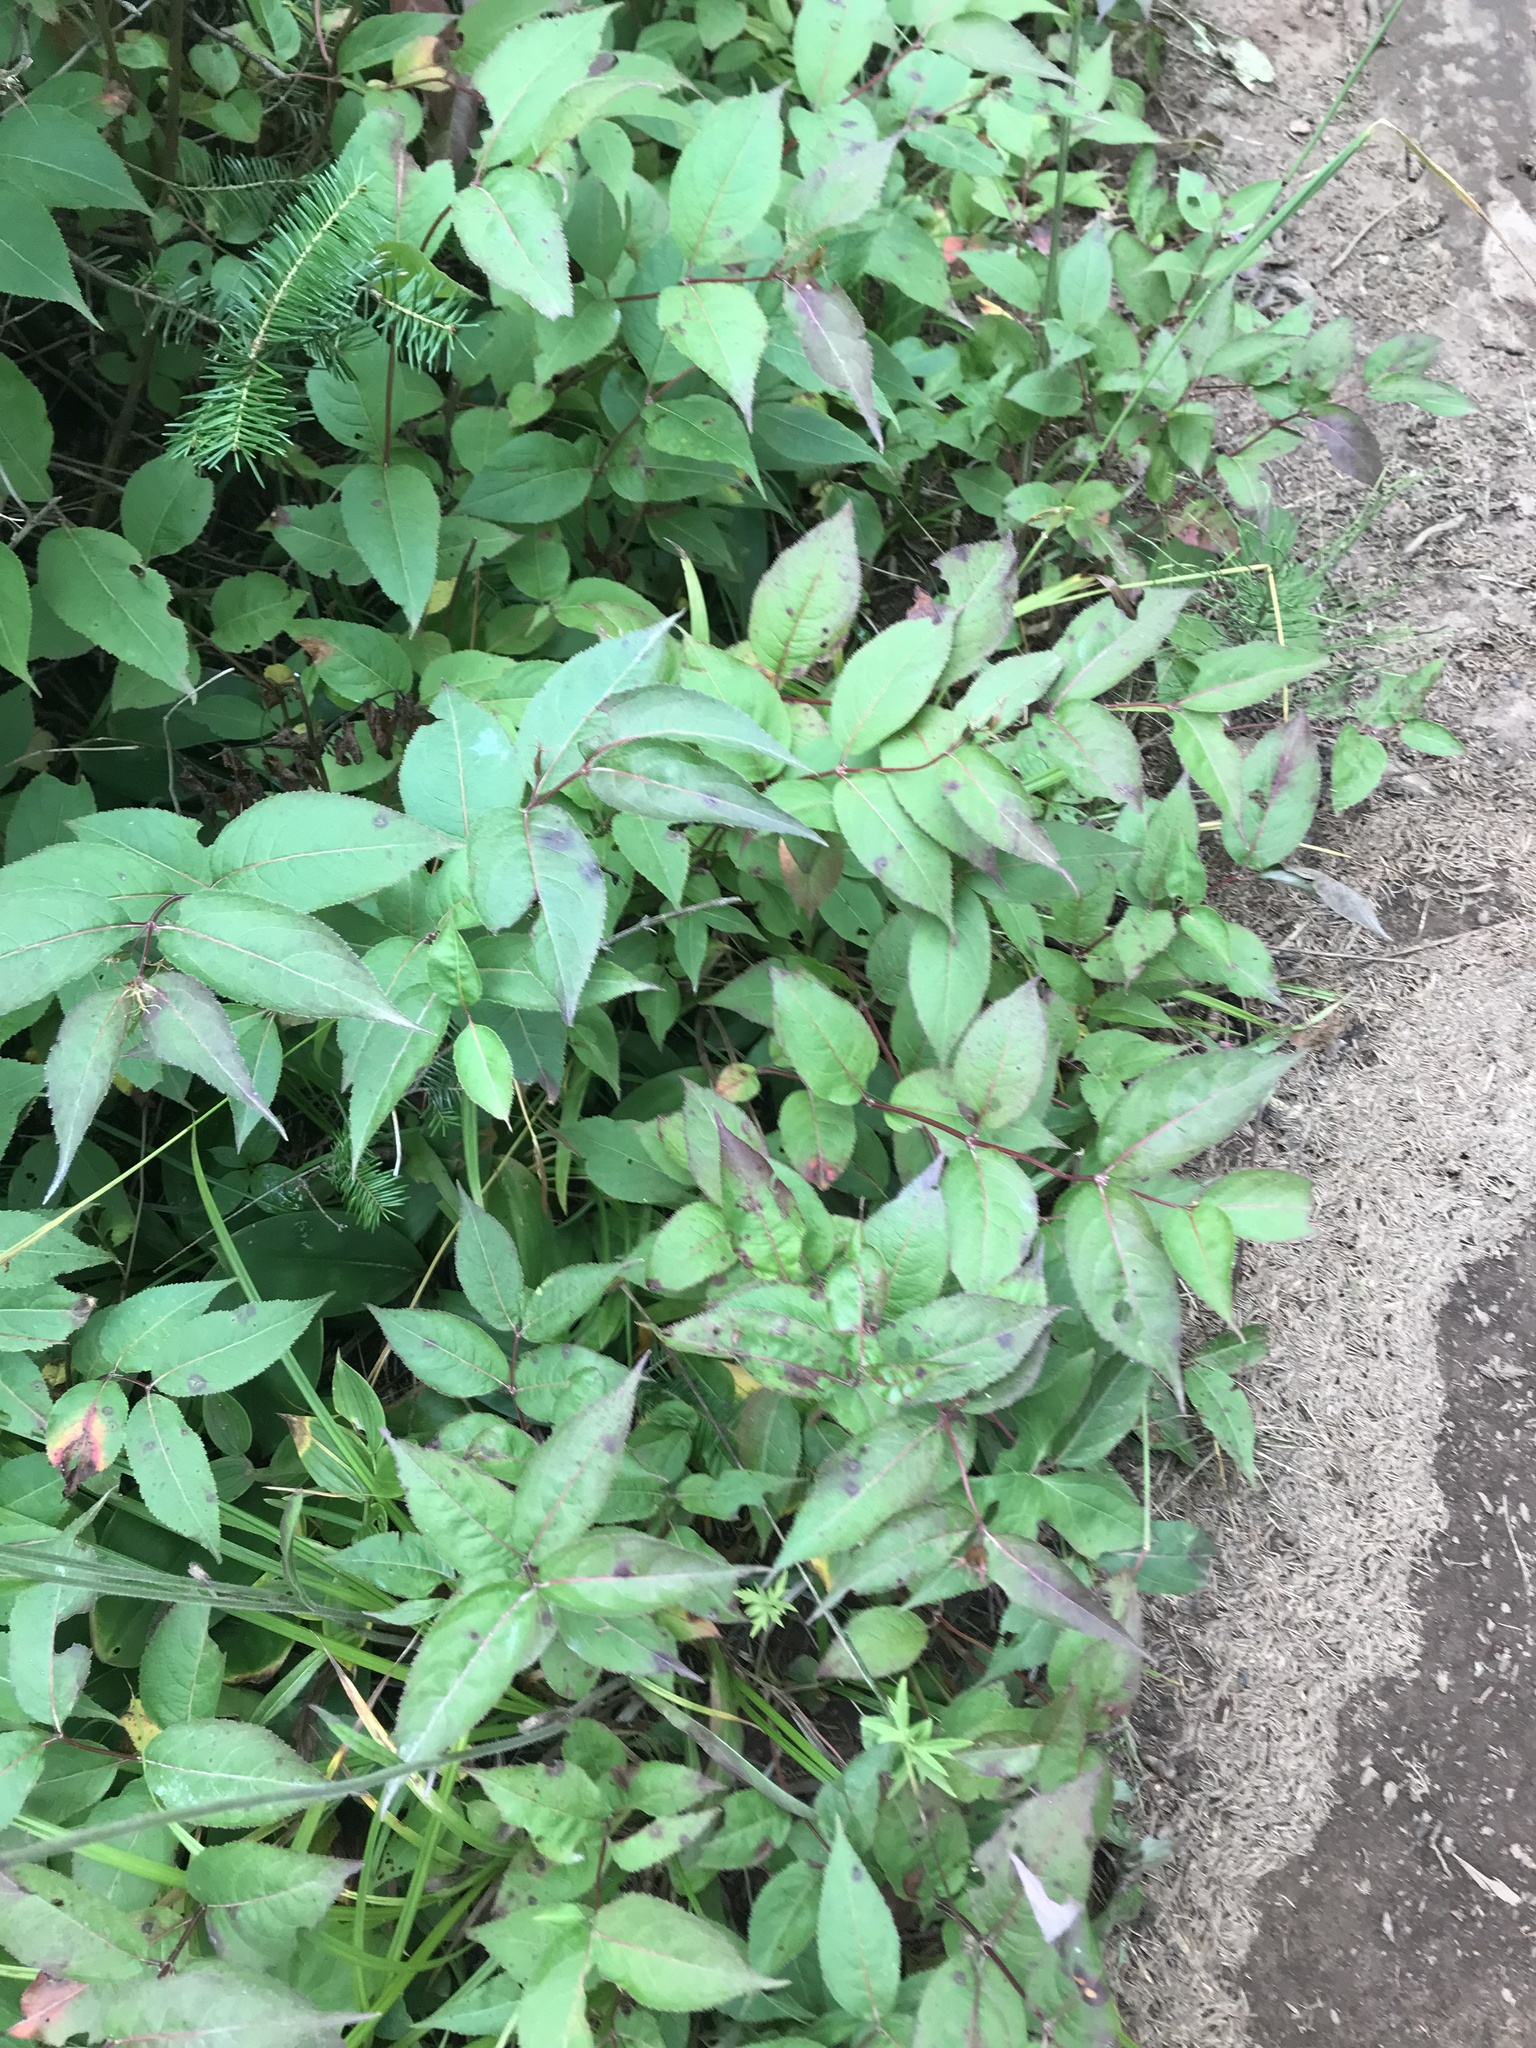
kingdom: Plantae
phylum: Tracheophyta
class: Magnoliopsida
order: Dipsacales
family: Caprifoliaceae
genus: Diervilla
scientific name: Diervilla lonicera
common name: Bush-honeysuckle
